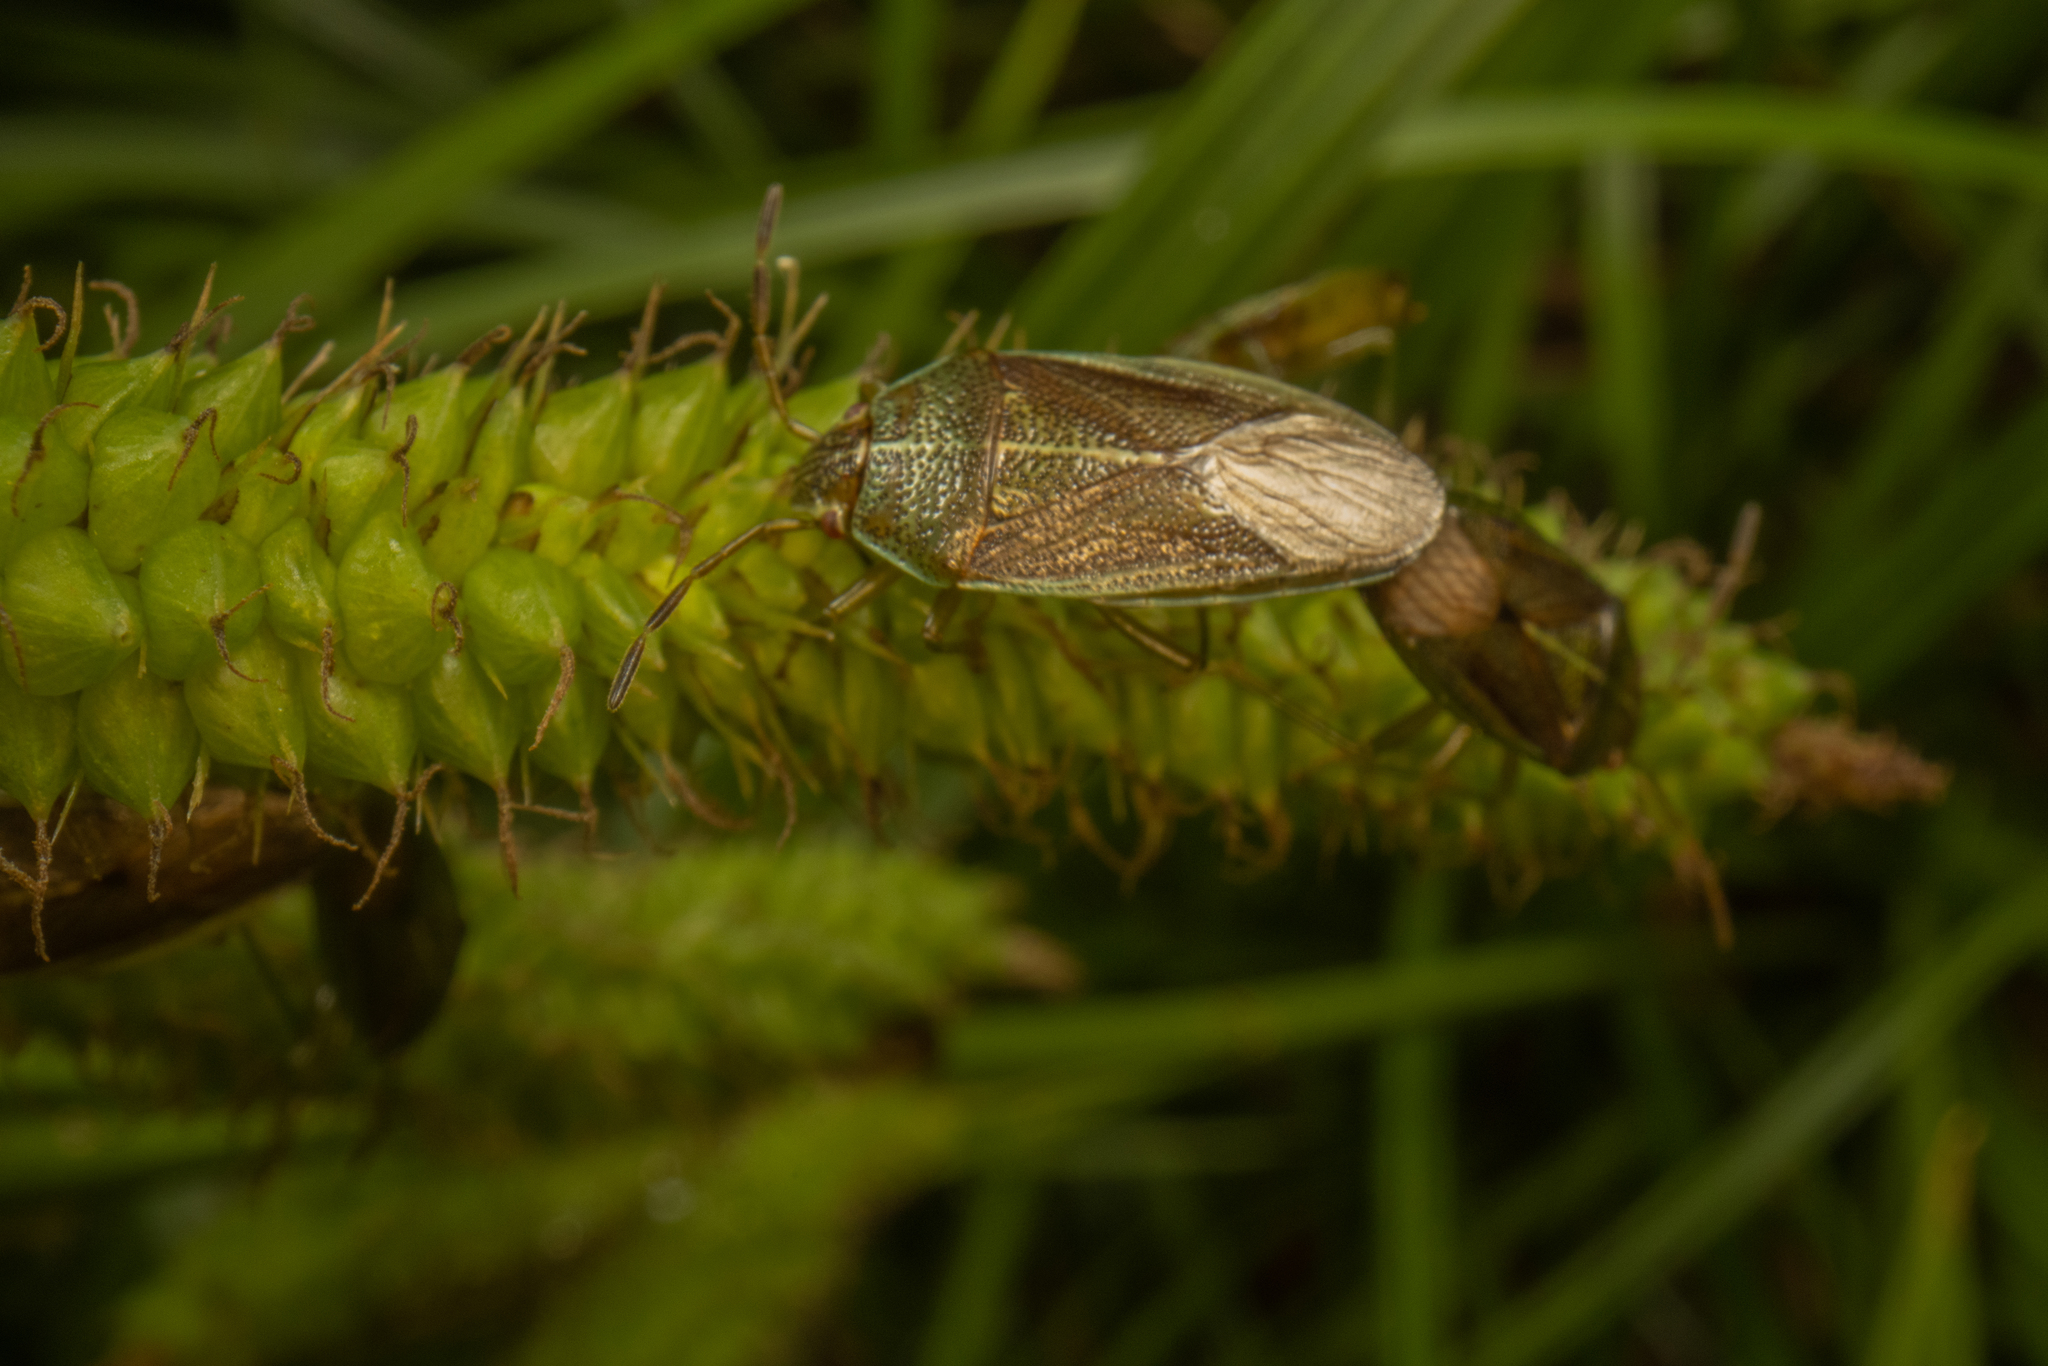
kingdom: Animalia
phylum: Arthropoda
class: Insecta
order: Hemiptera
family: Acanthosomatidae
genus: Rhopalimorpha
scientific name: Rhopalimorpha obscura
